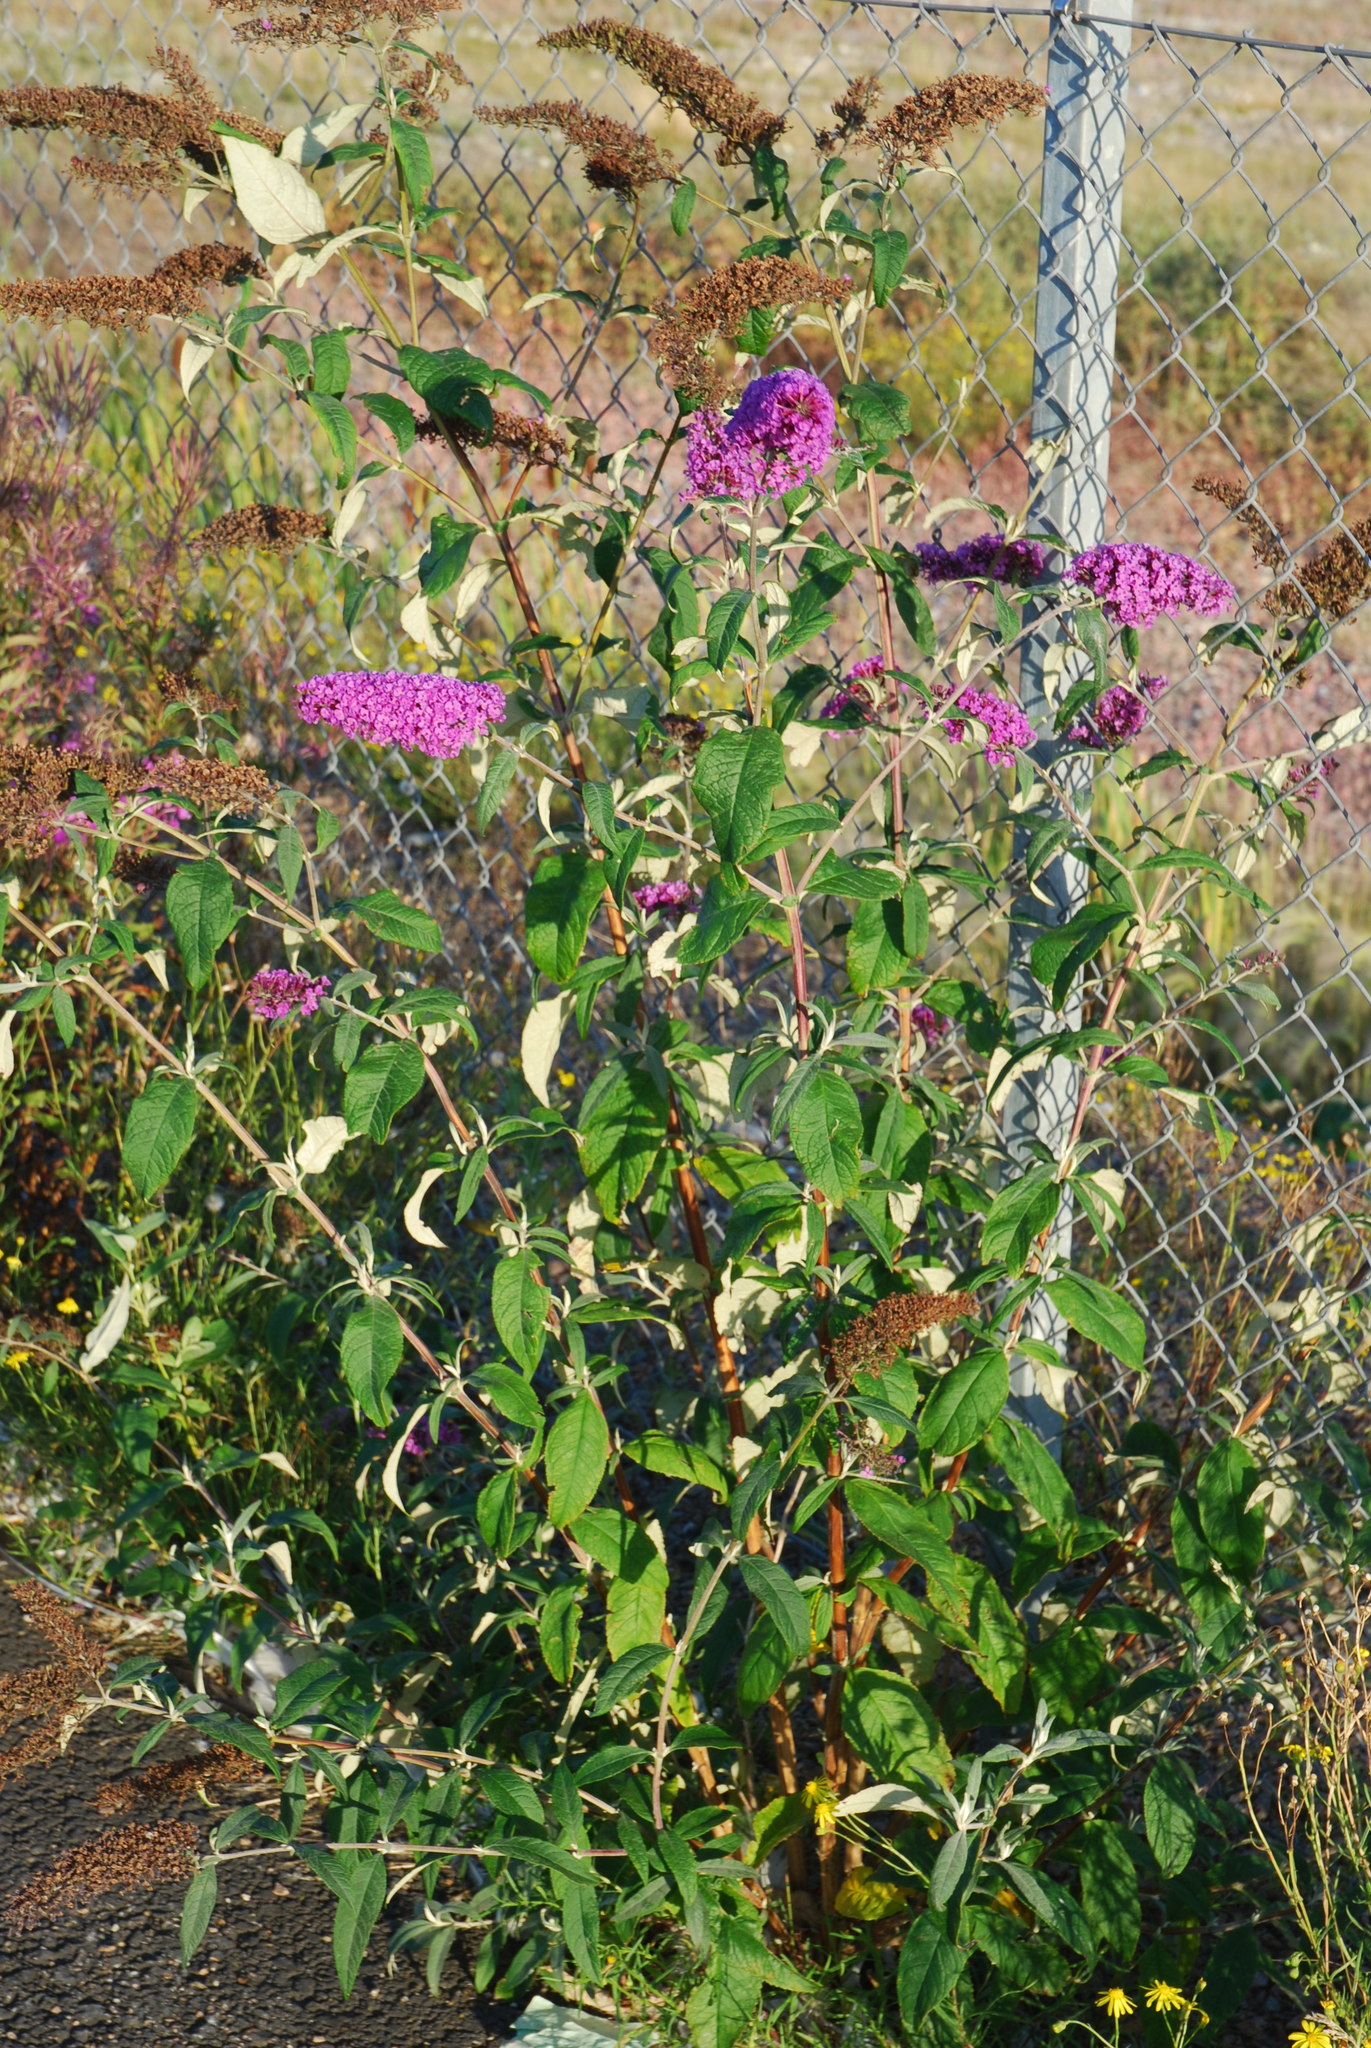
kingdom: Plantae
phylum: Tracheophyta
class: Magnoliopsida
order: Lamiales
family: Scrophulariaceae
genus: Buddleja
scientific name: Buddleja davidii
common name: Butterfly-bush
